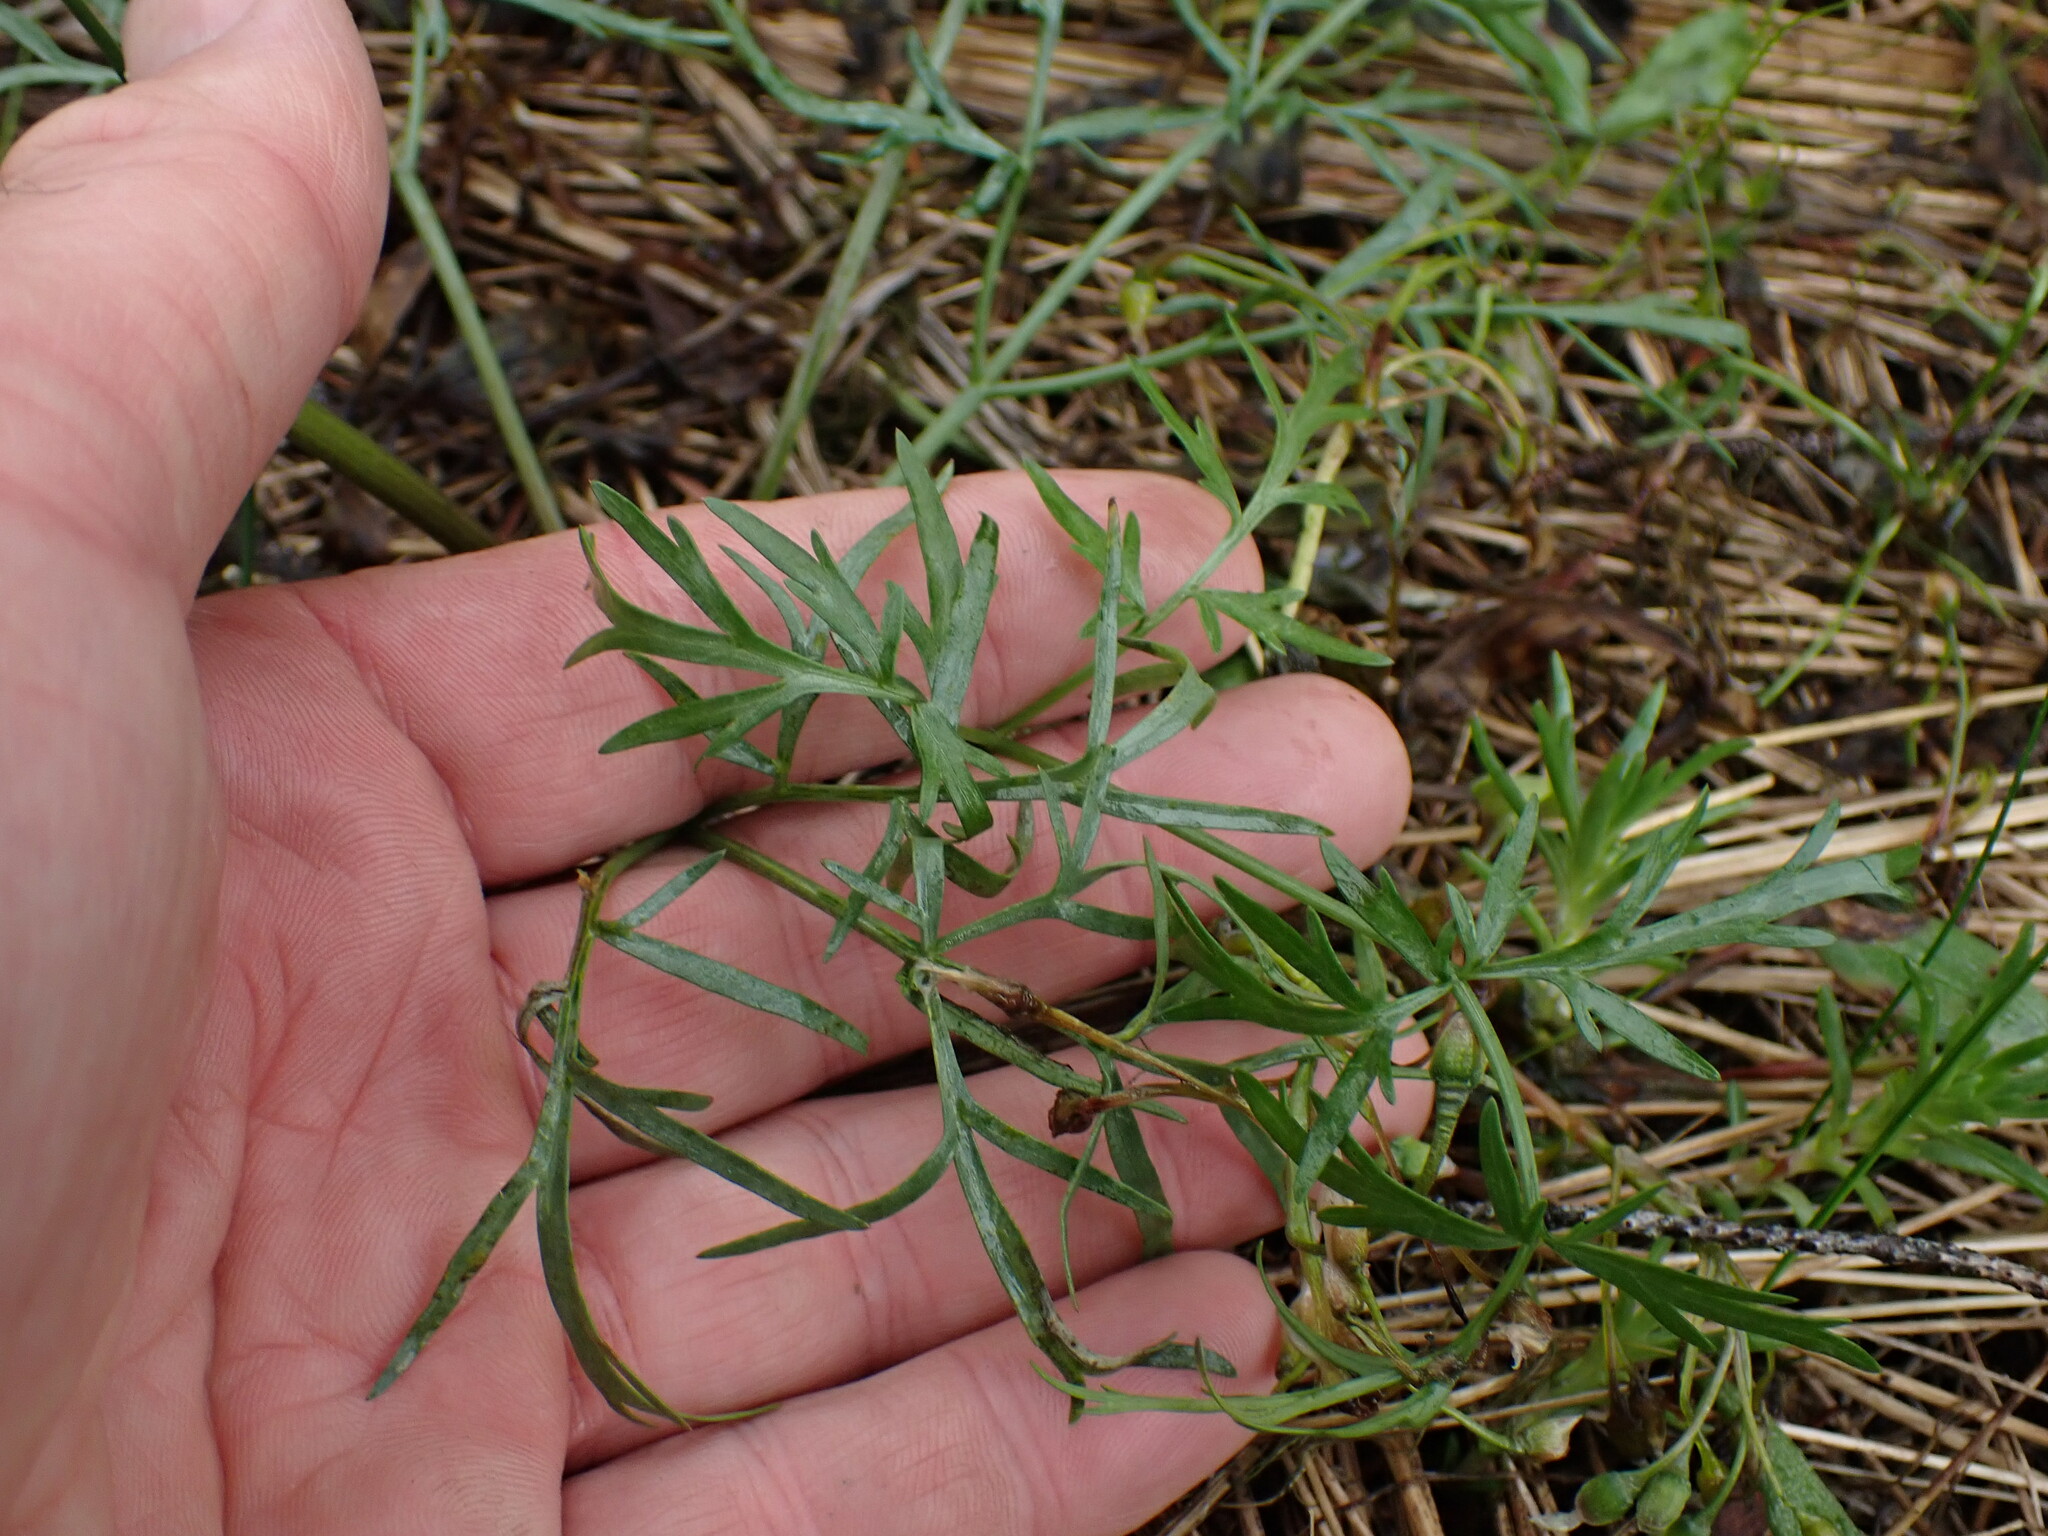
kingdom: Plantae
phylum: Tracheophyta
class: Magnoliopsida
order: Apiales
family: Apiaceae
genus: Lomatium
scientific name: Lomatium geyeri
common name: Geyer's biscuitroot
